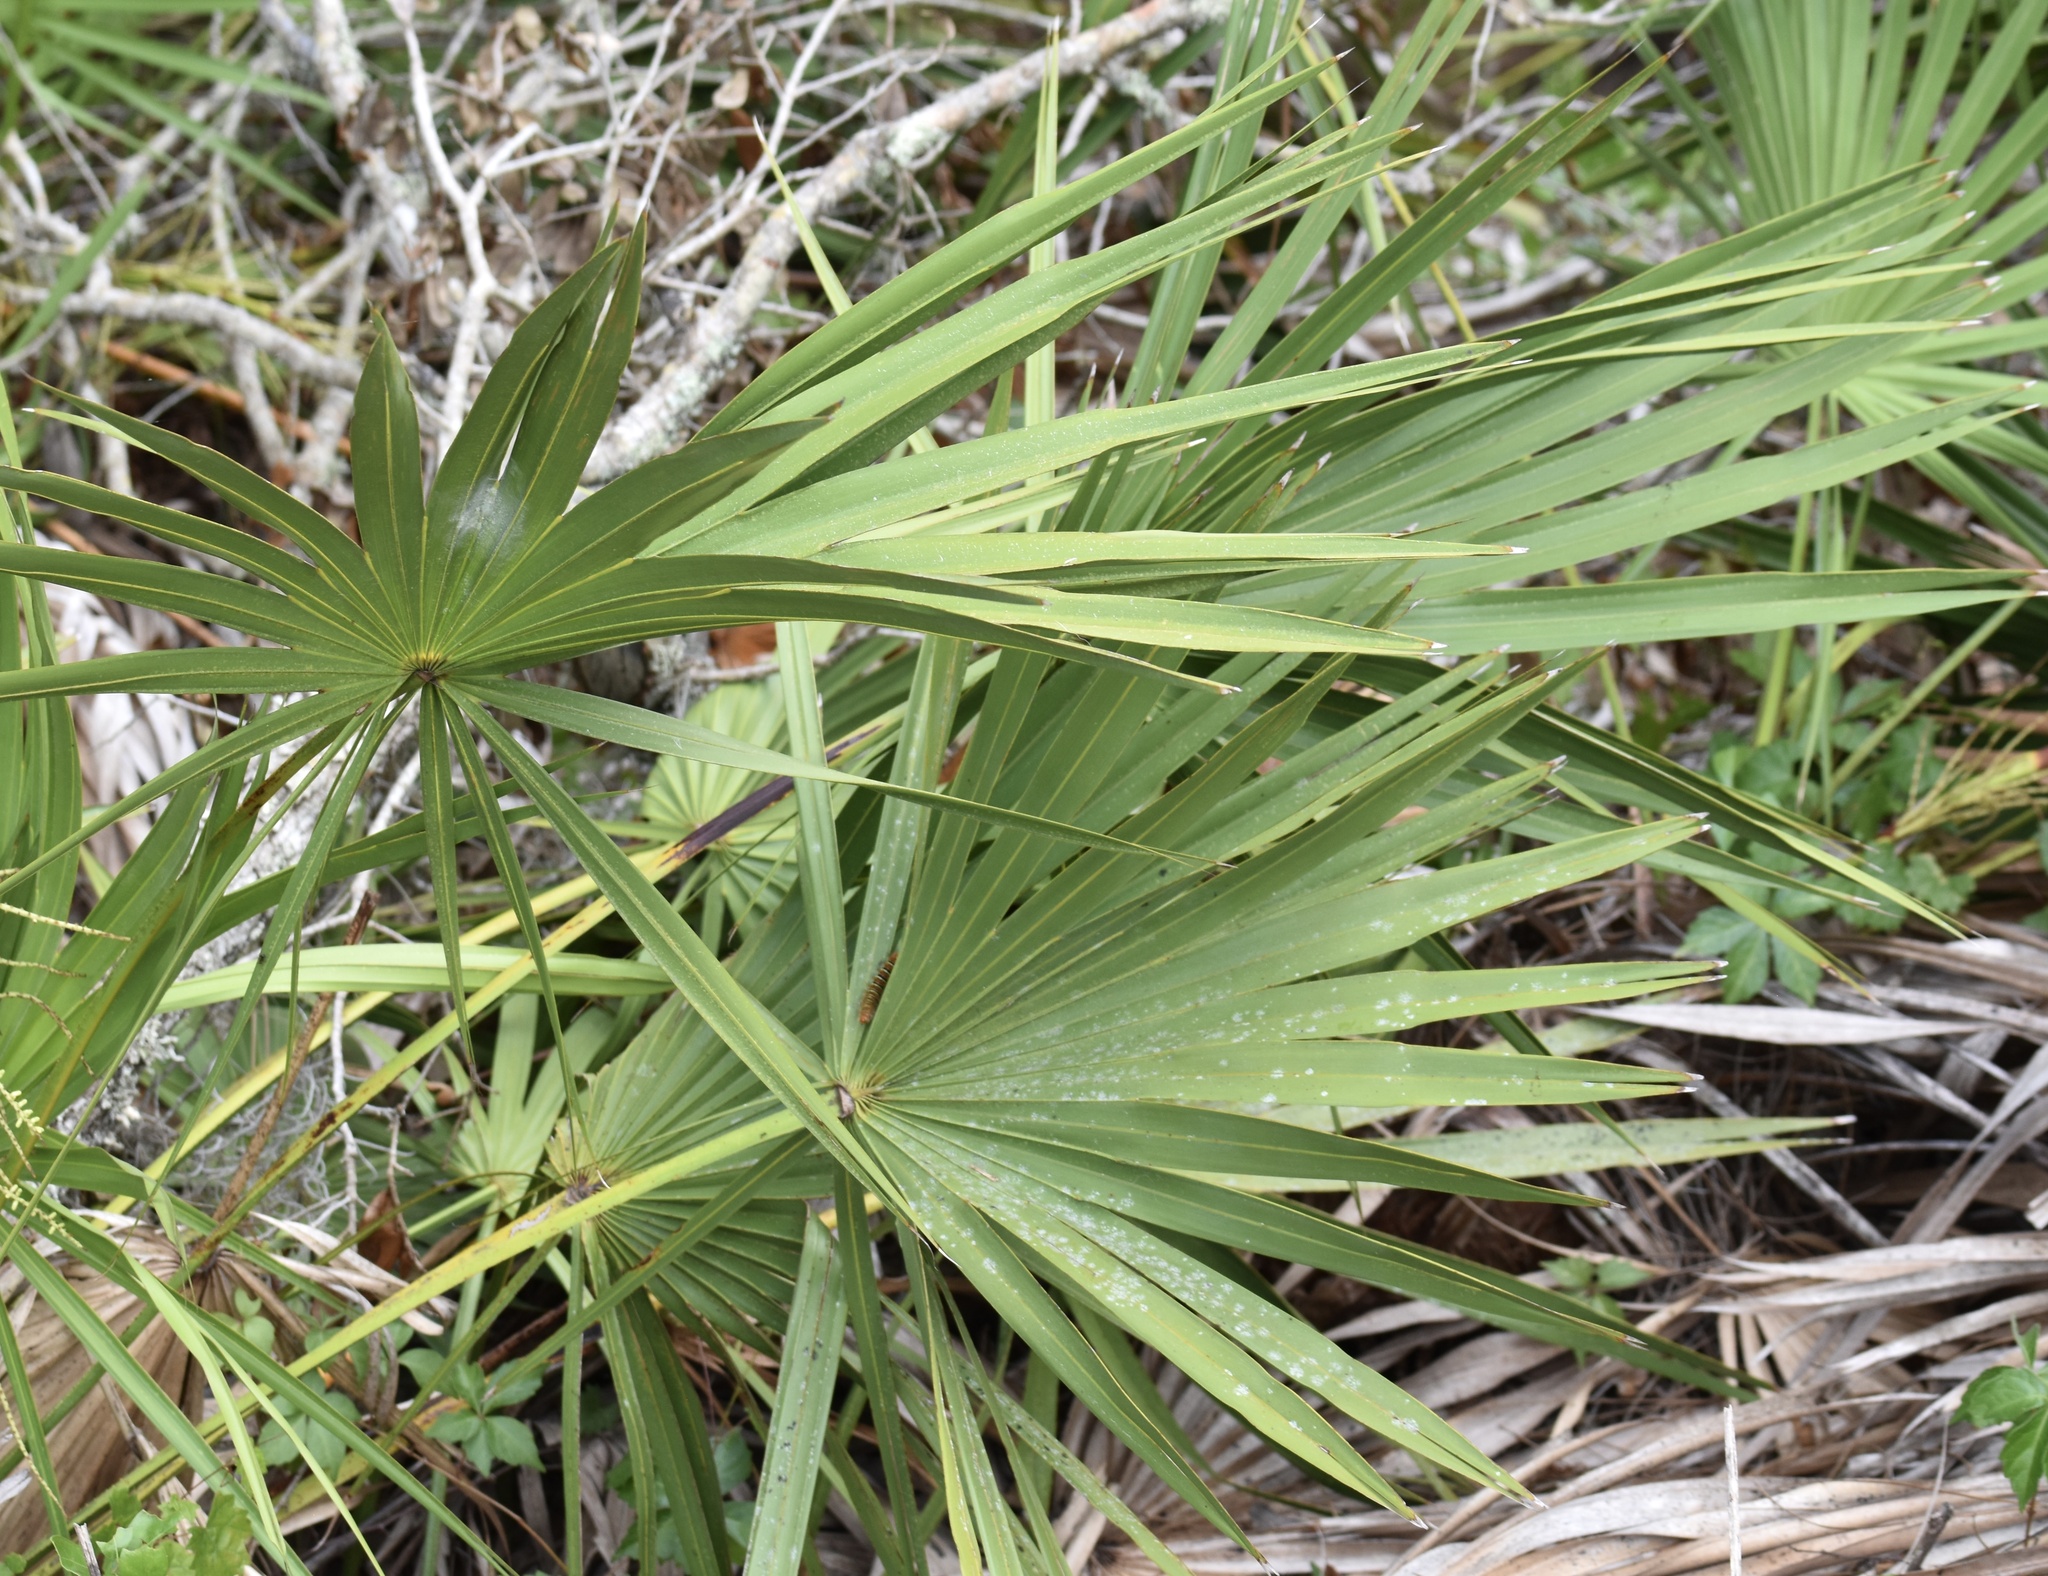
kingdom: Plantae
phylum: Tracheophyta
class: Liliopsida
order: Arecales
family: Arecaceae
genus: Serenoa
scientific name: Serenoa repens
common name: Saw-palmetto
